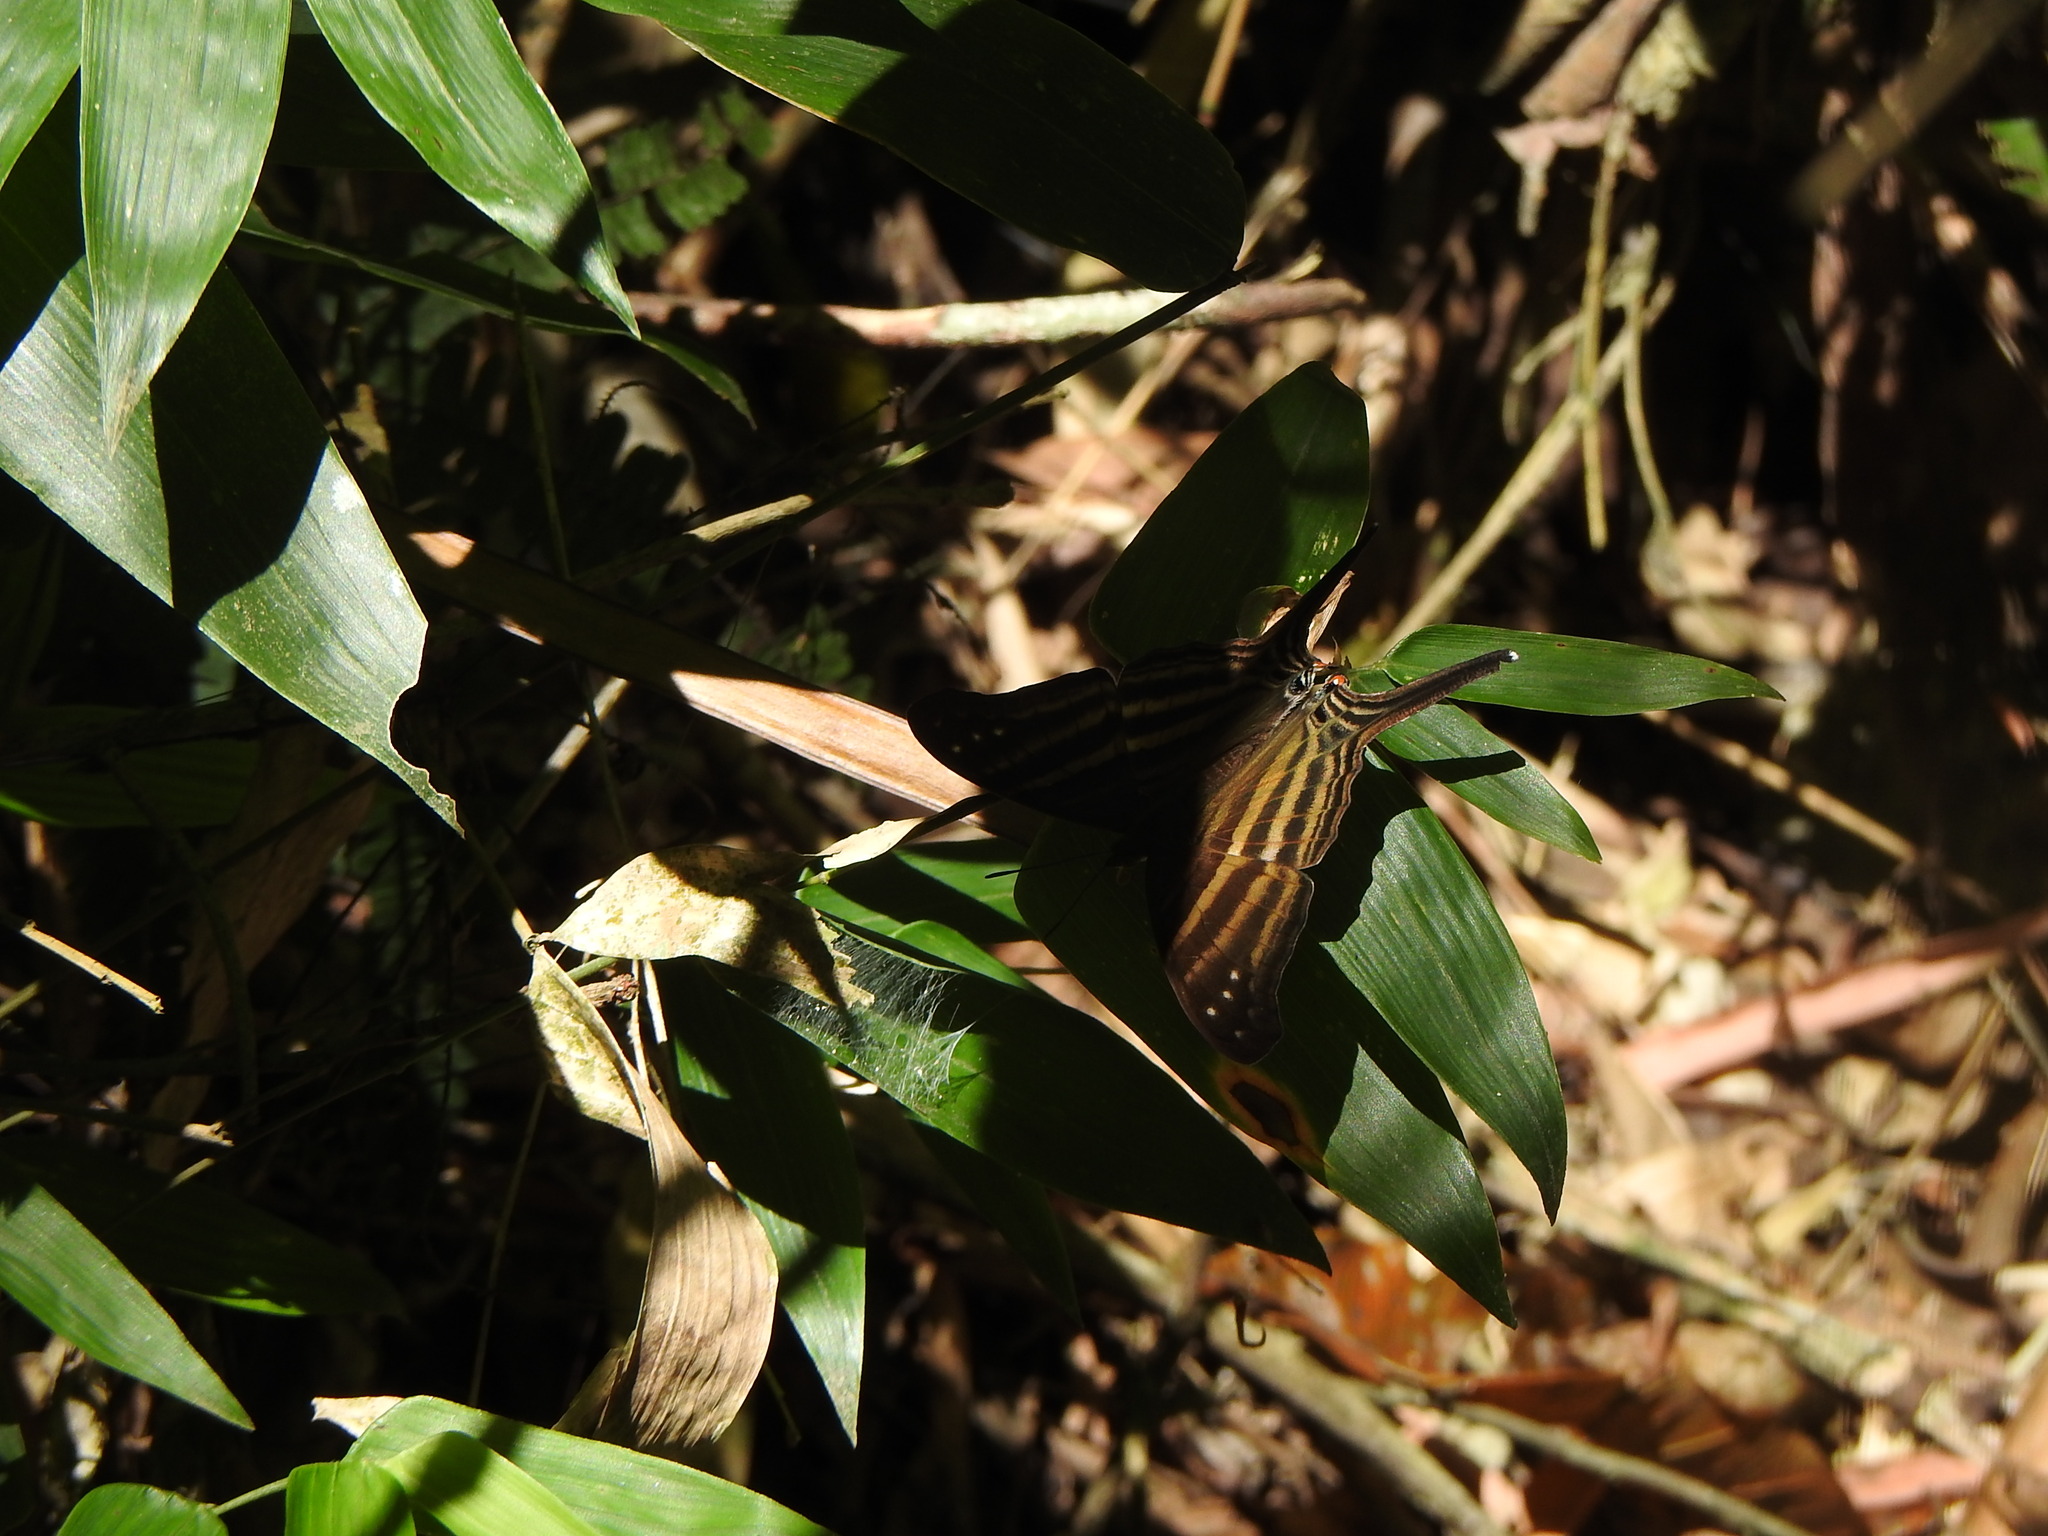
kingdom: Animalia
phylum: Arthropoda
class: Insecta
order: Lepidoptera
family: Nymphalidae
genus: Marpesia
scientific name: Marpesia chiron
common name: Many-banded daggerwing
